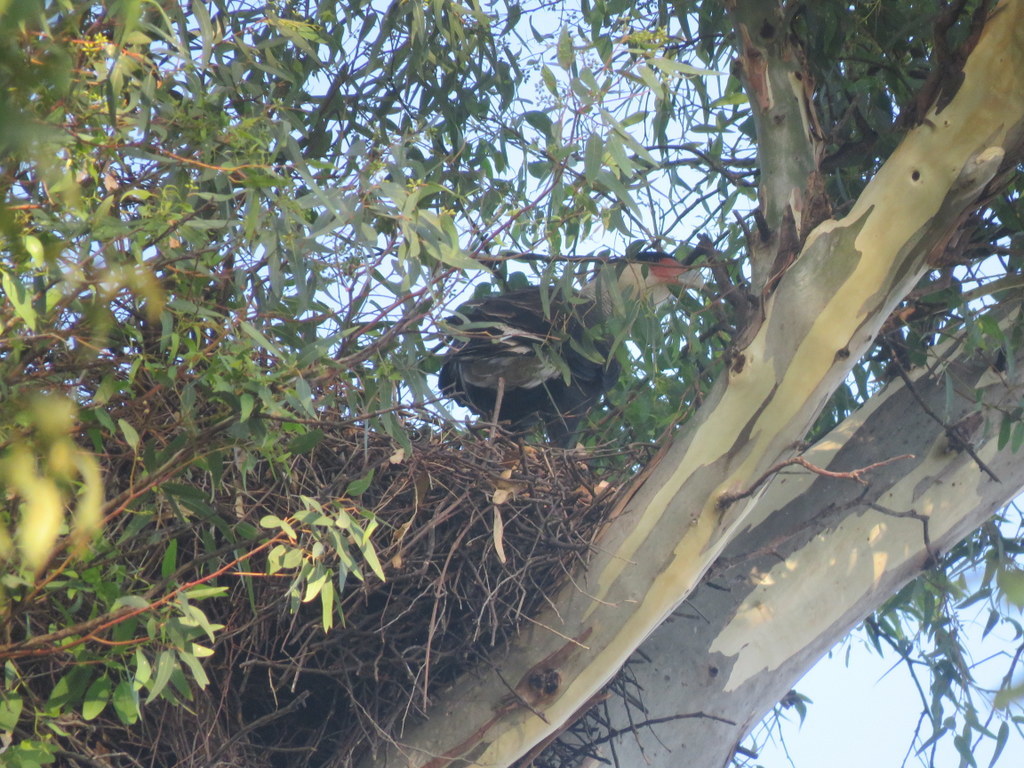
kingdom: Animalia
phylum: Chordata
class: Aves
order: Falconiformes
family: Falconidae
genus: Caracara
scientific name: Caracara plancus
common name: Southern caracara
